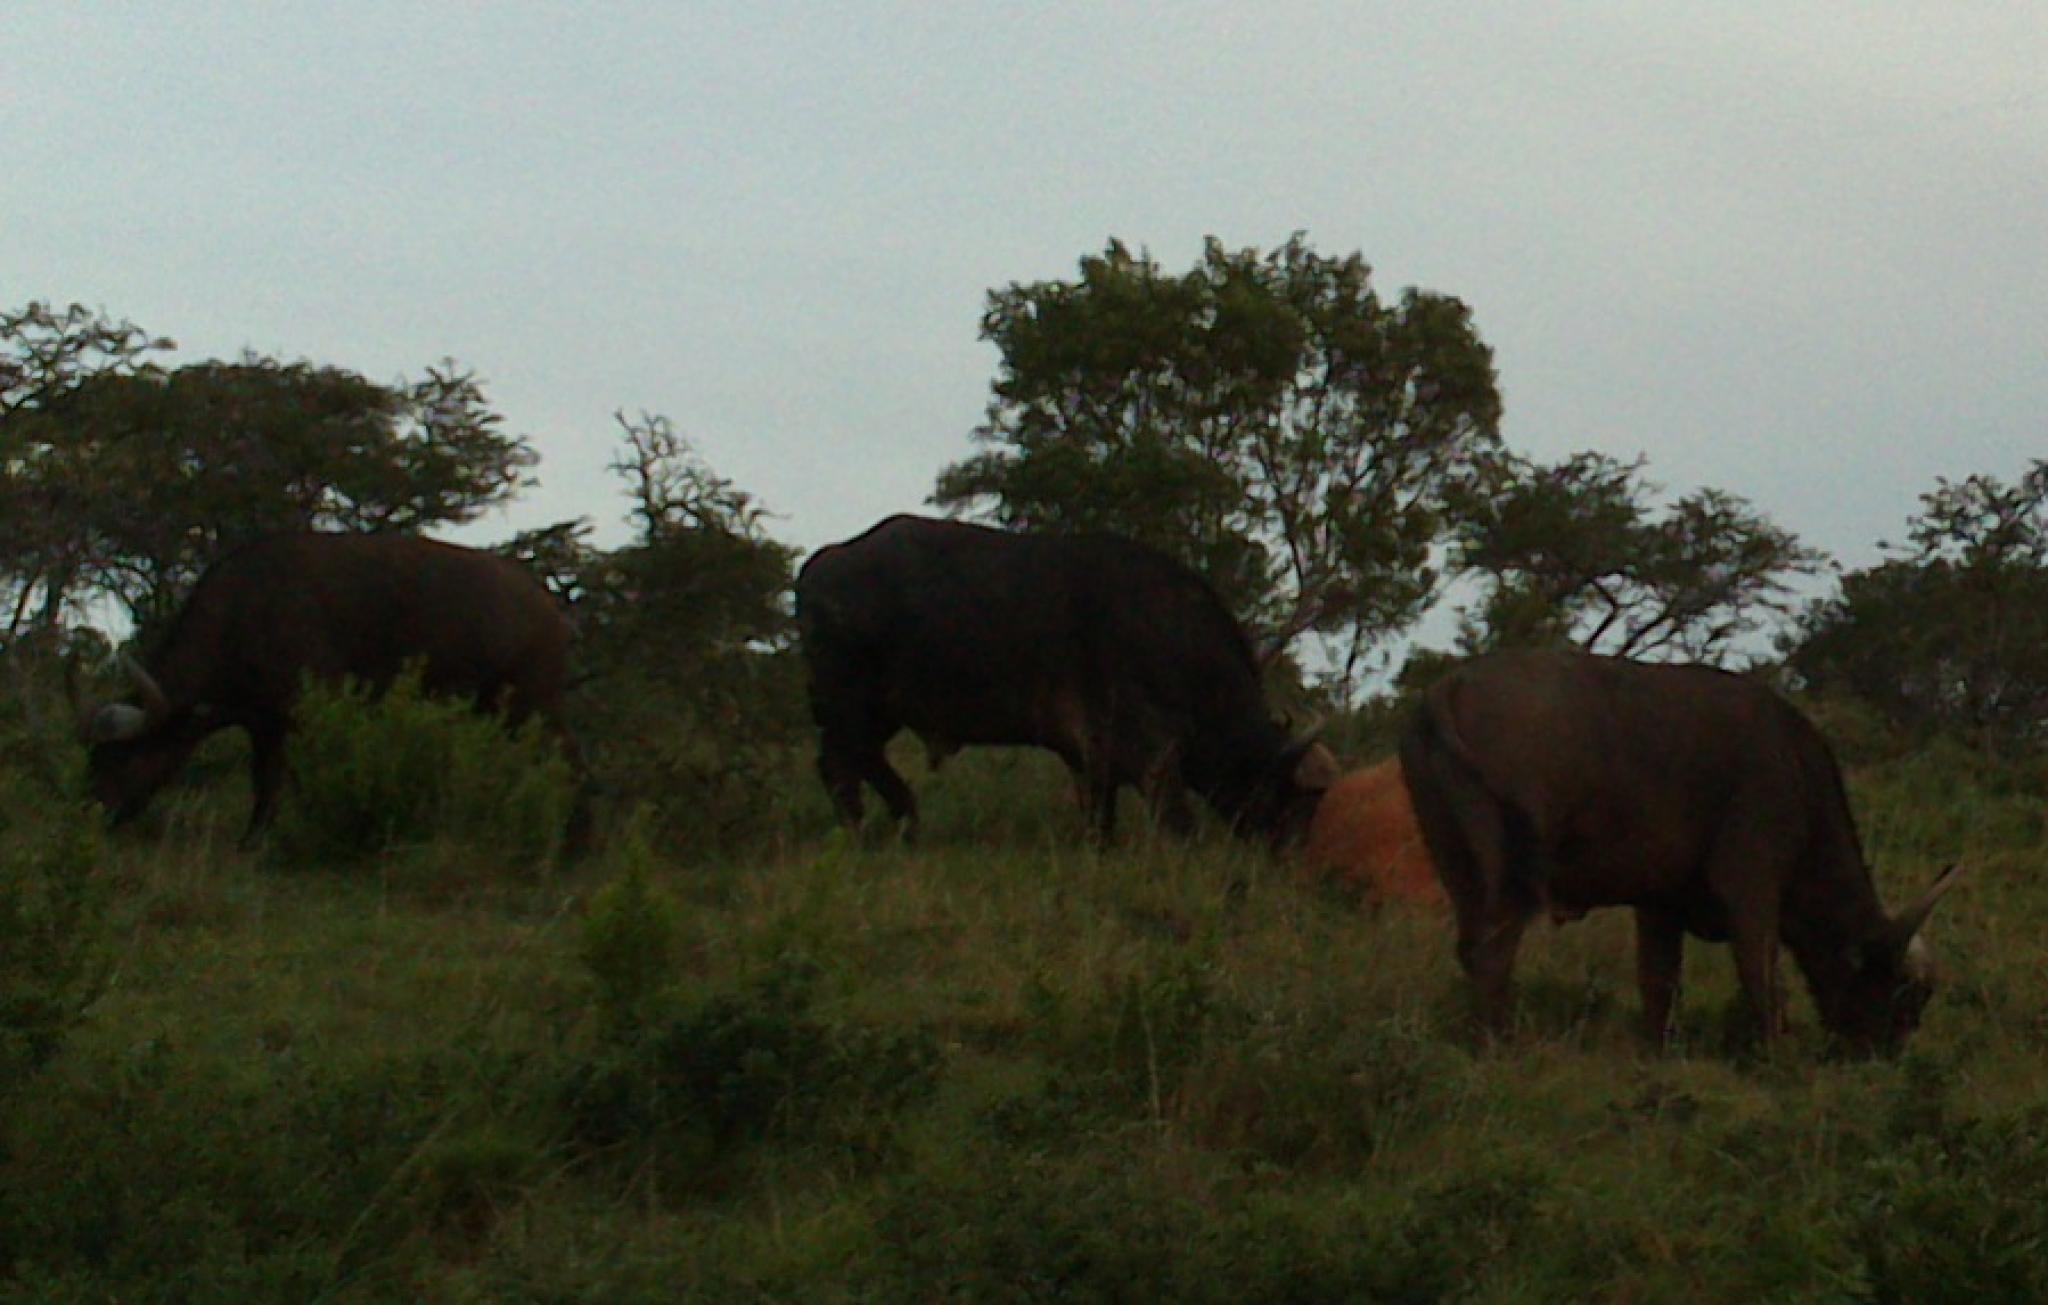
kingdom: Animalia
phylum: Chordata
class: Mammalia
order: Artiodactyla
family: Bovidae
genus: Syncerus
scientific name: Syncerus caffer
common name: African buffalo
